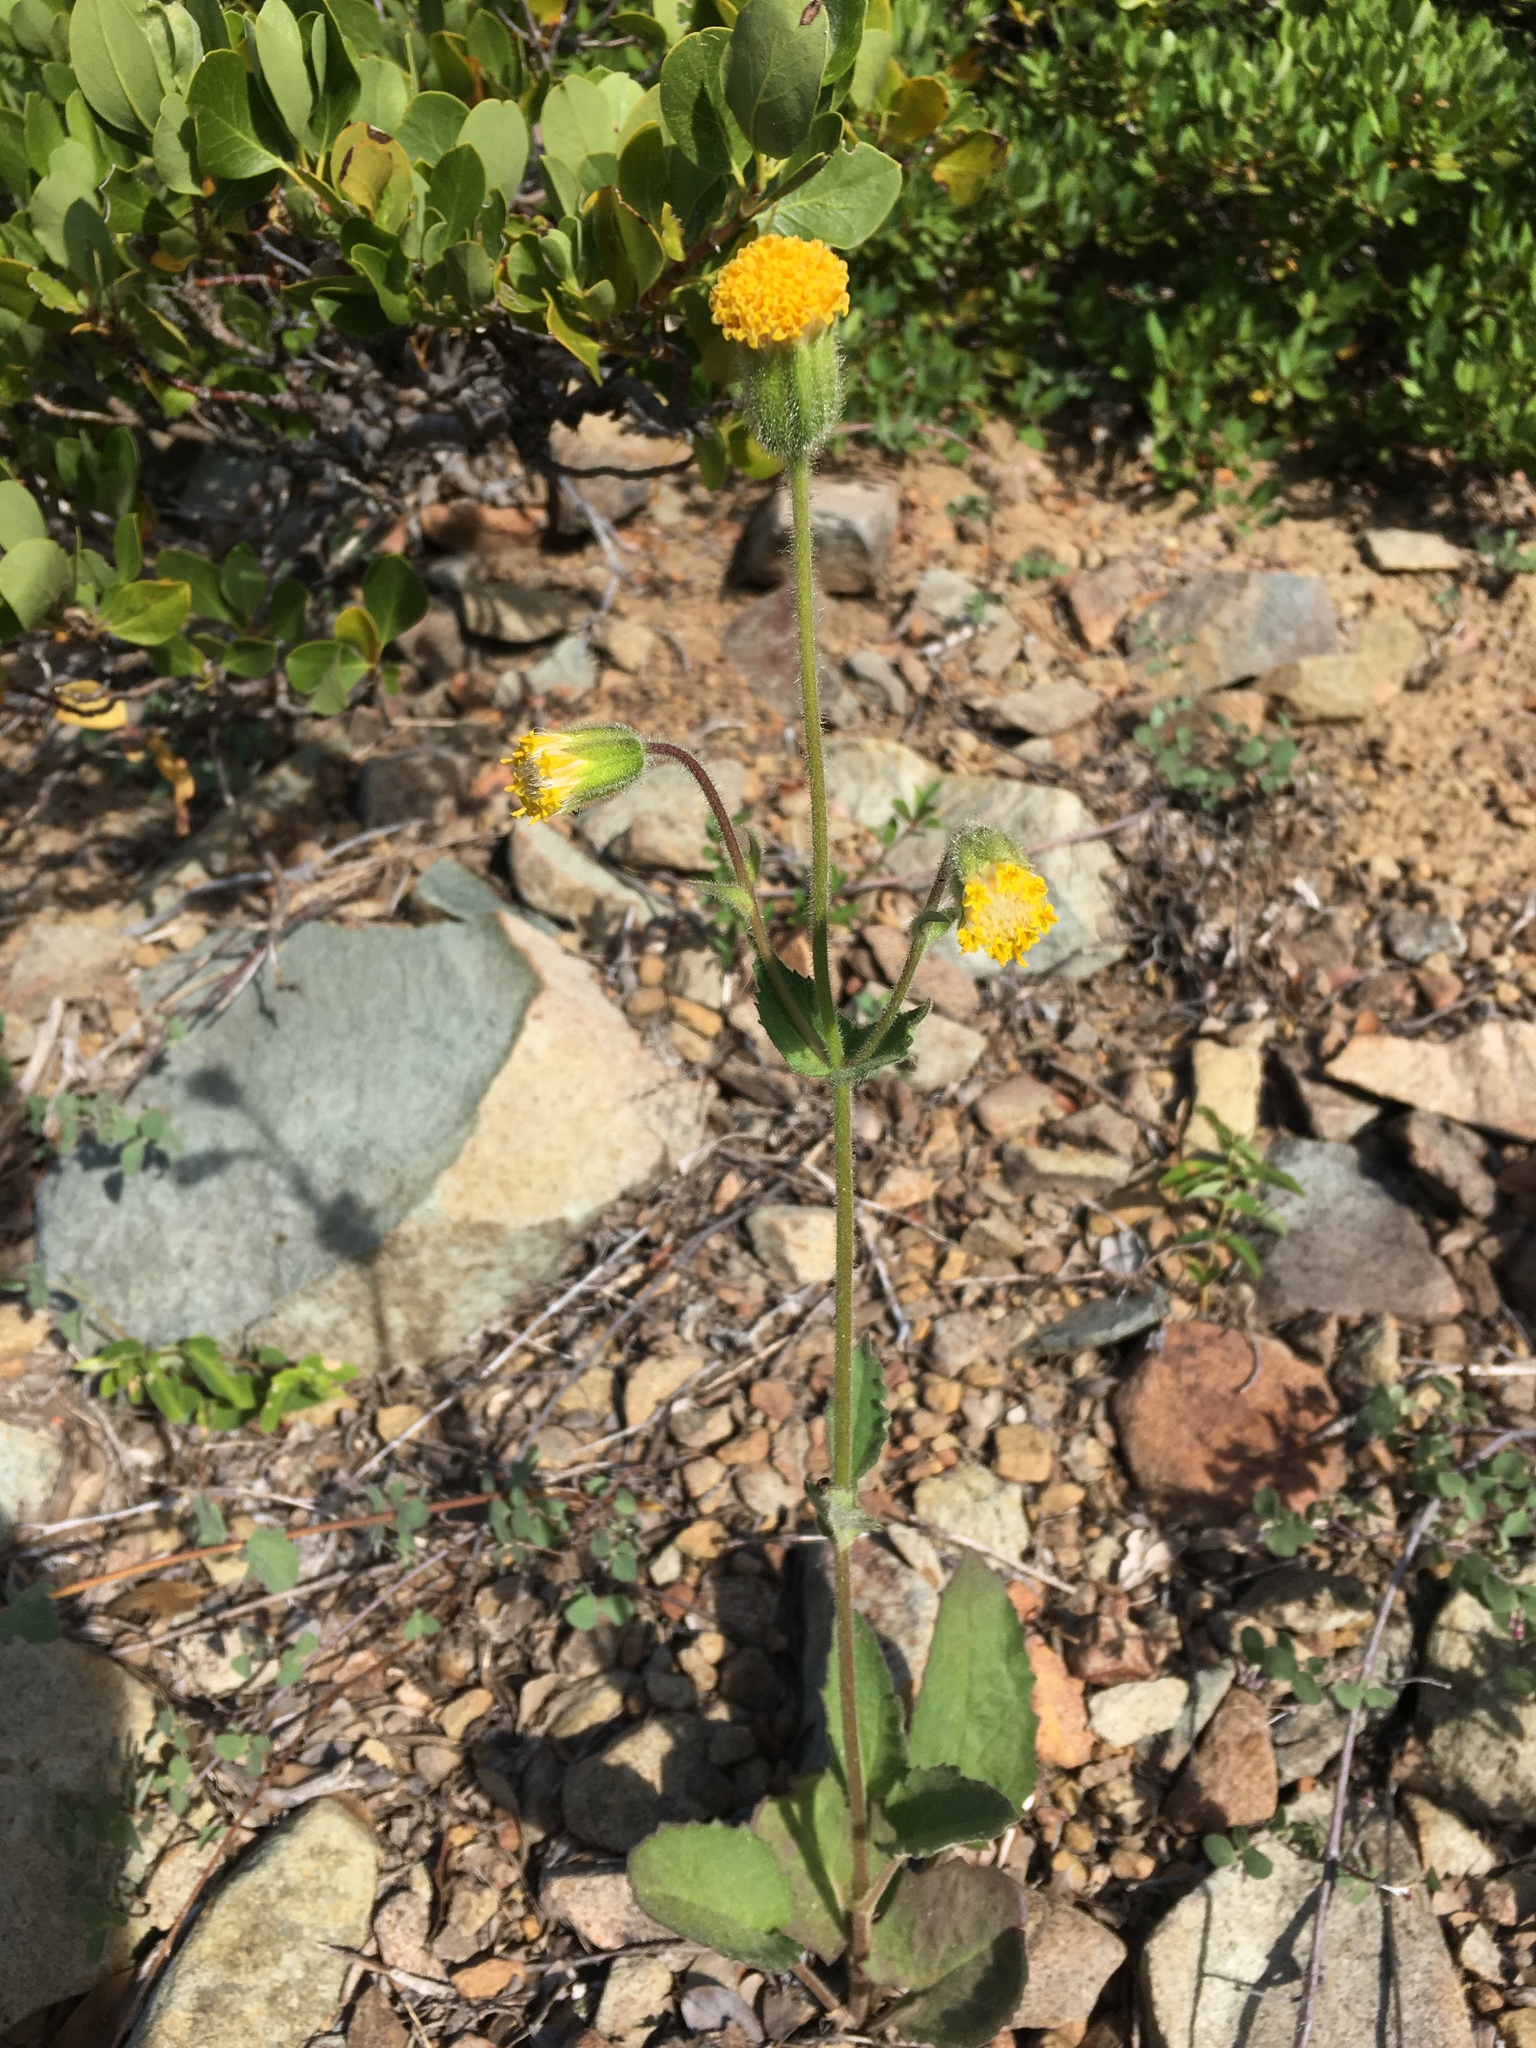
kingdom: Plantae
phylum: Tracheophyta
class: Magnoliopsida
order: Asterales
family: Asteraceae
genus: Arnica
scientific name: Arnica discoidea
